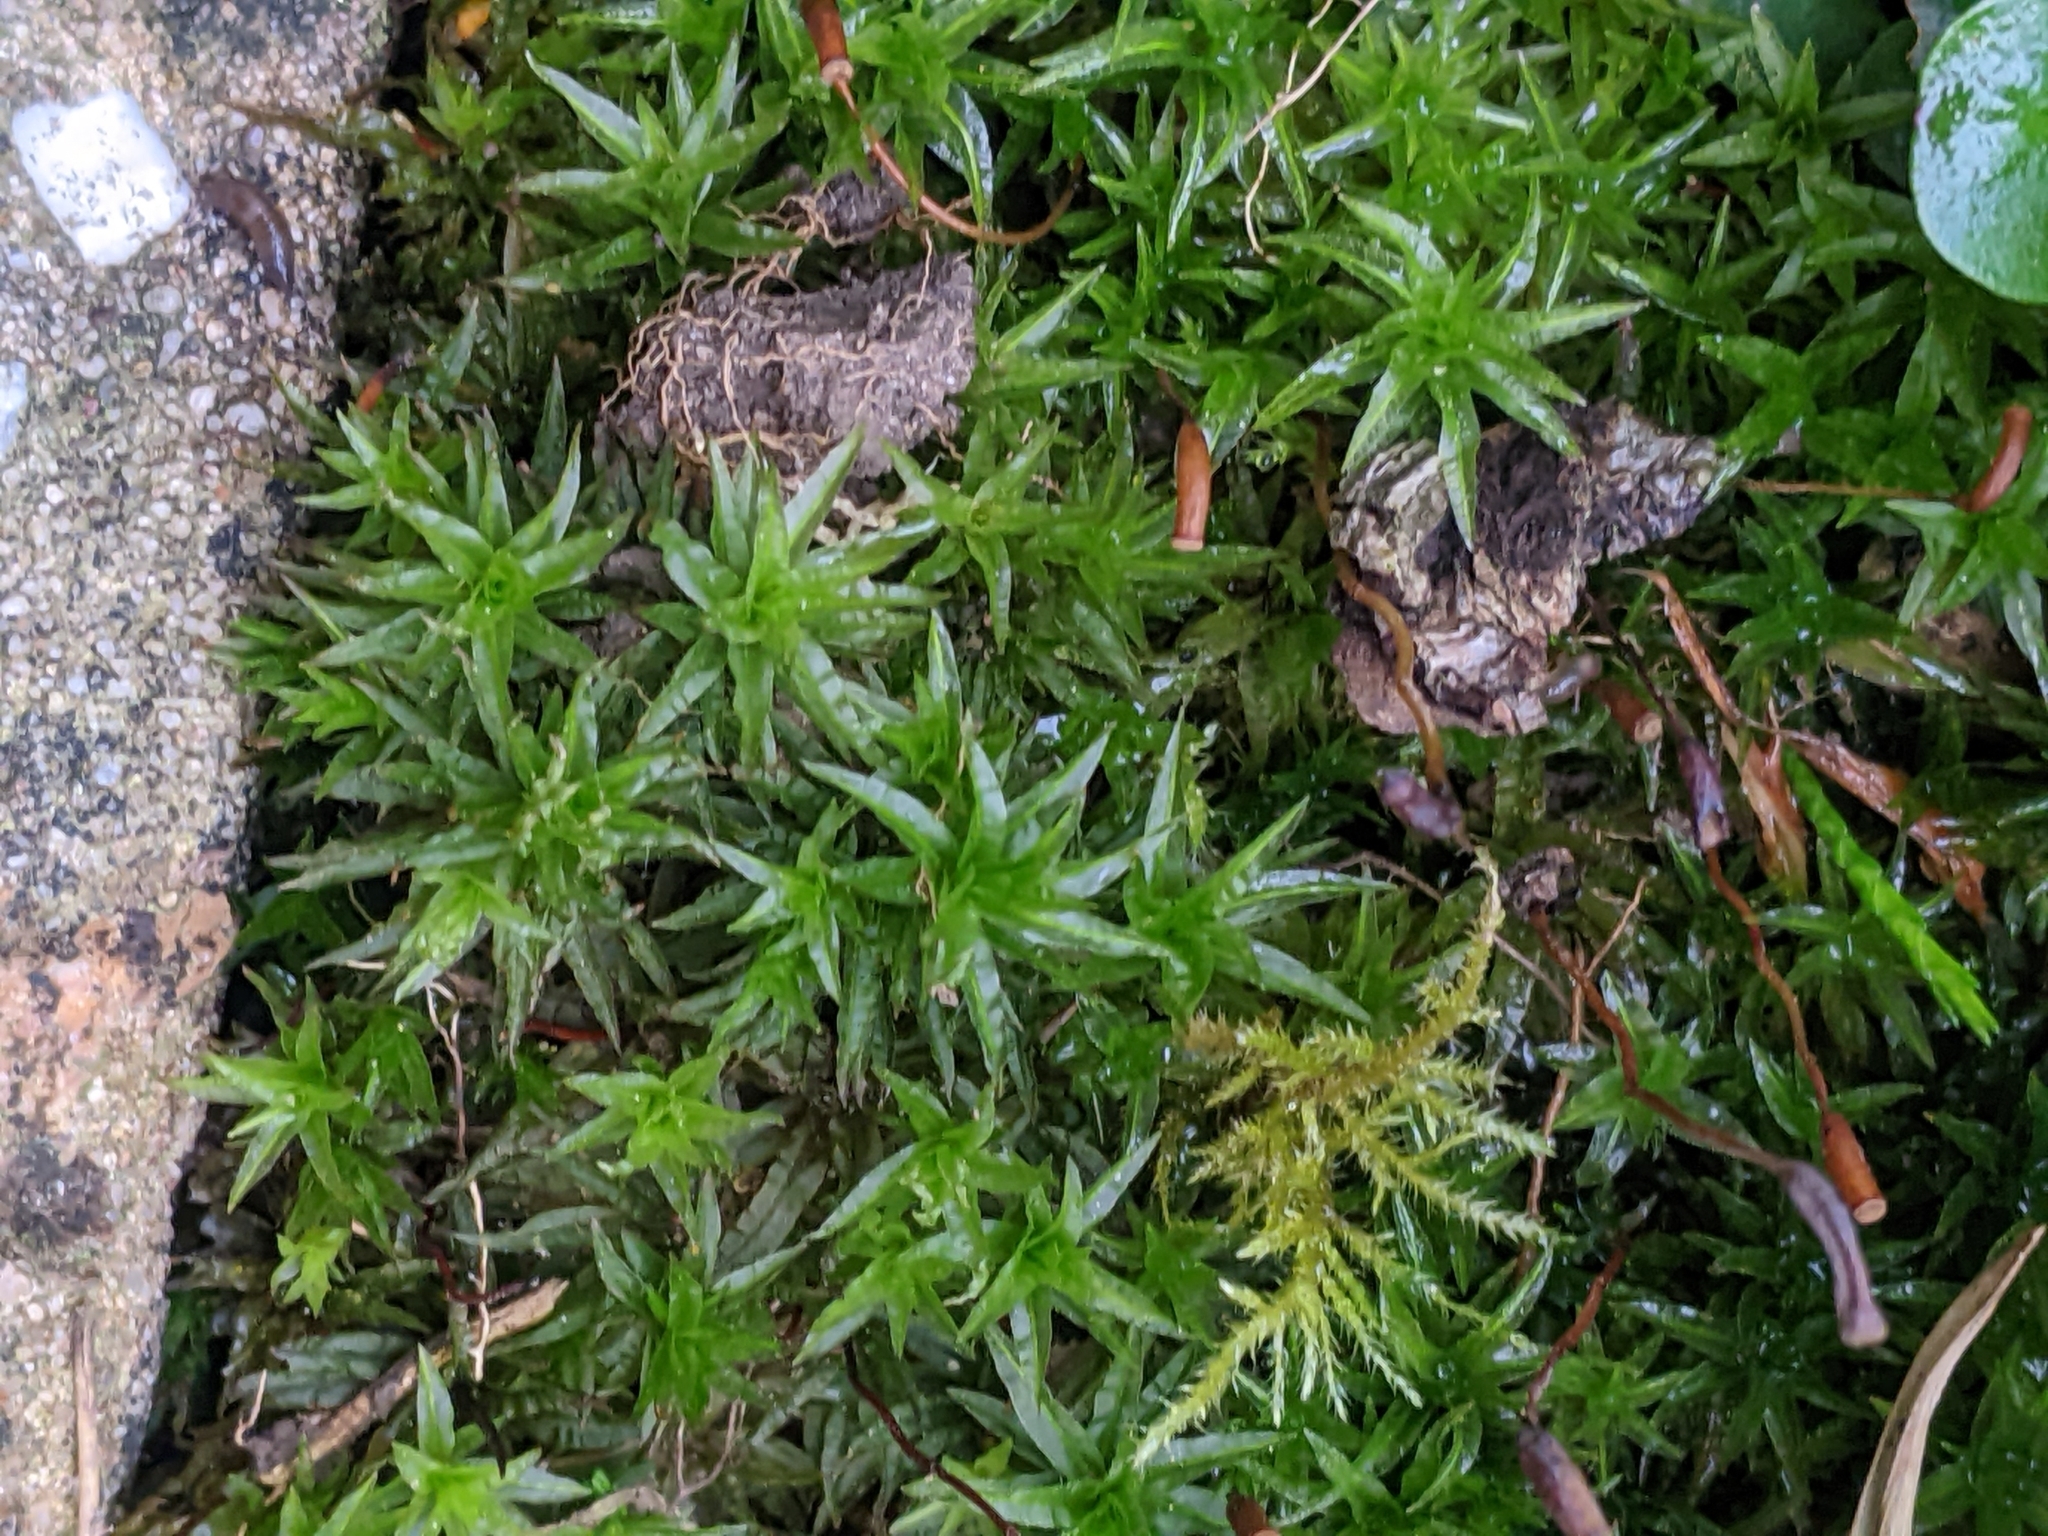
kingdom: Plantae
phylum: Bryophyta
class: Polytrichopsida
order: Polytrichales
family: Polytrichaceae
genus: Atrichum
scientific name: Atrichum undulatum
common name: Common smoothcap
